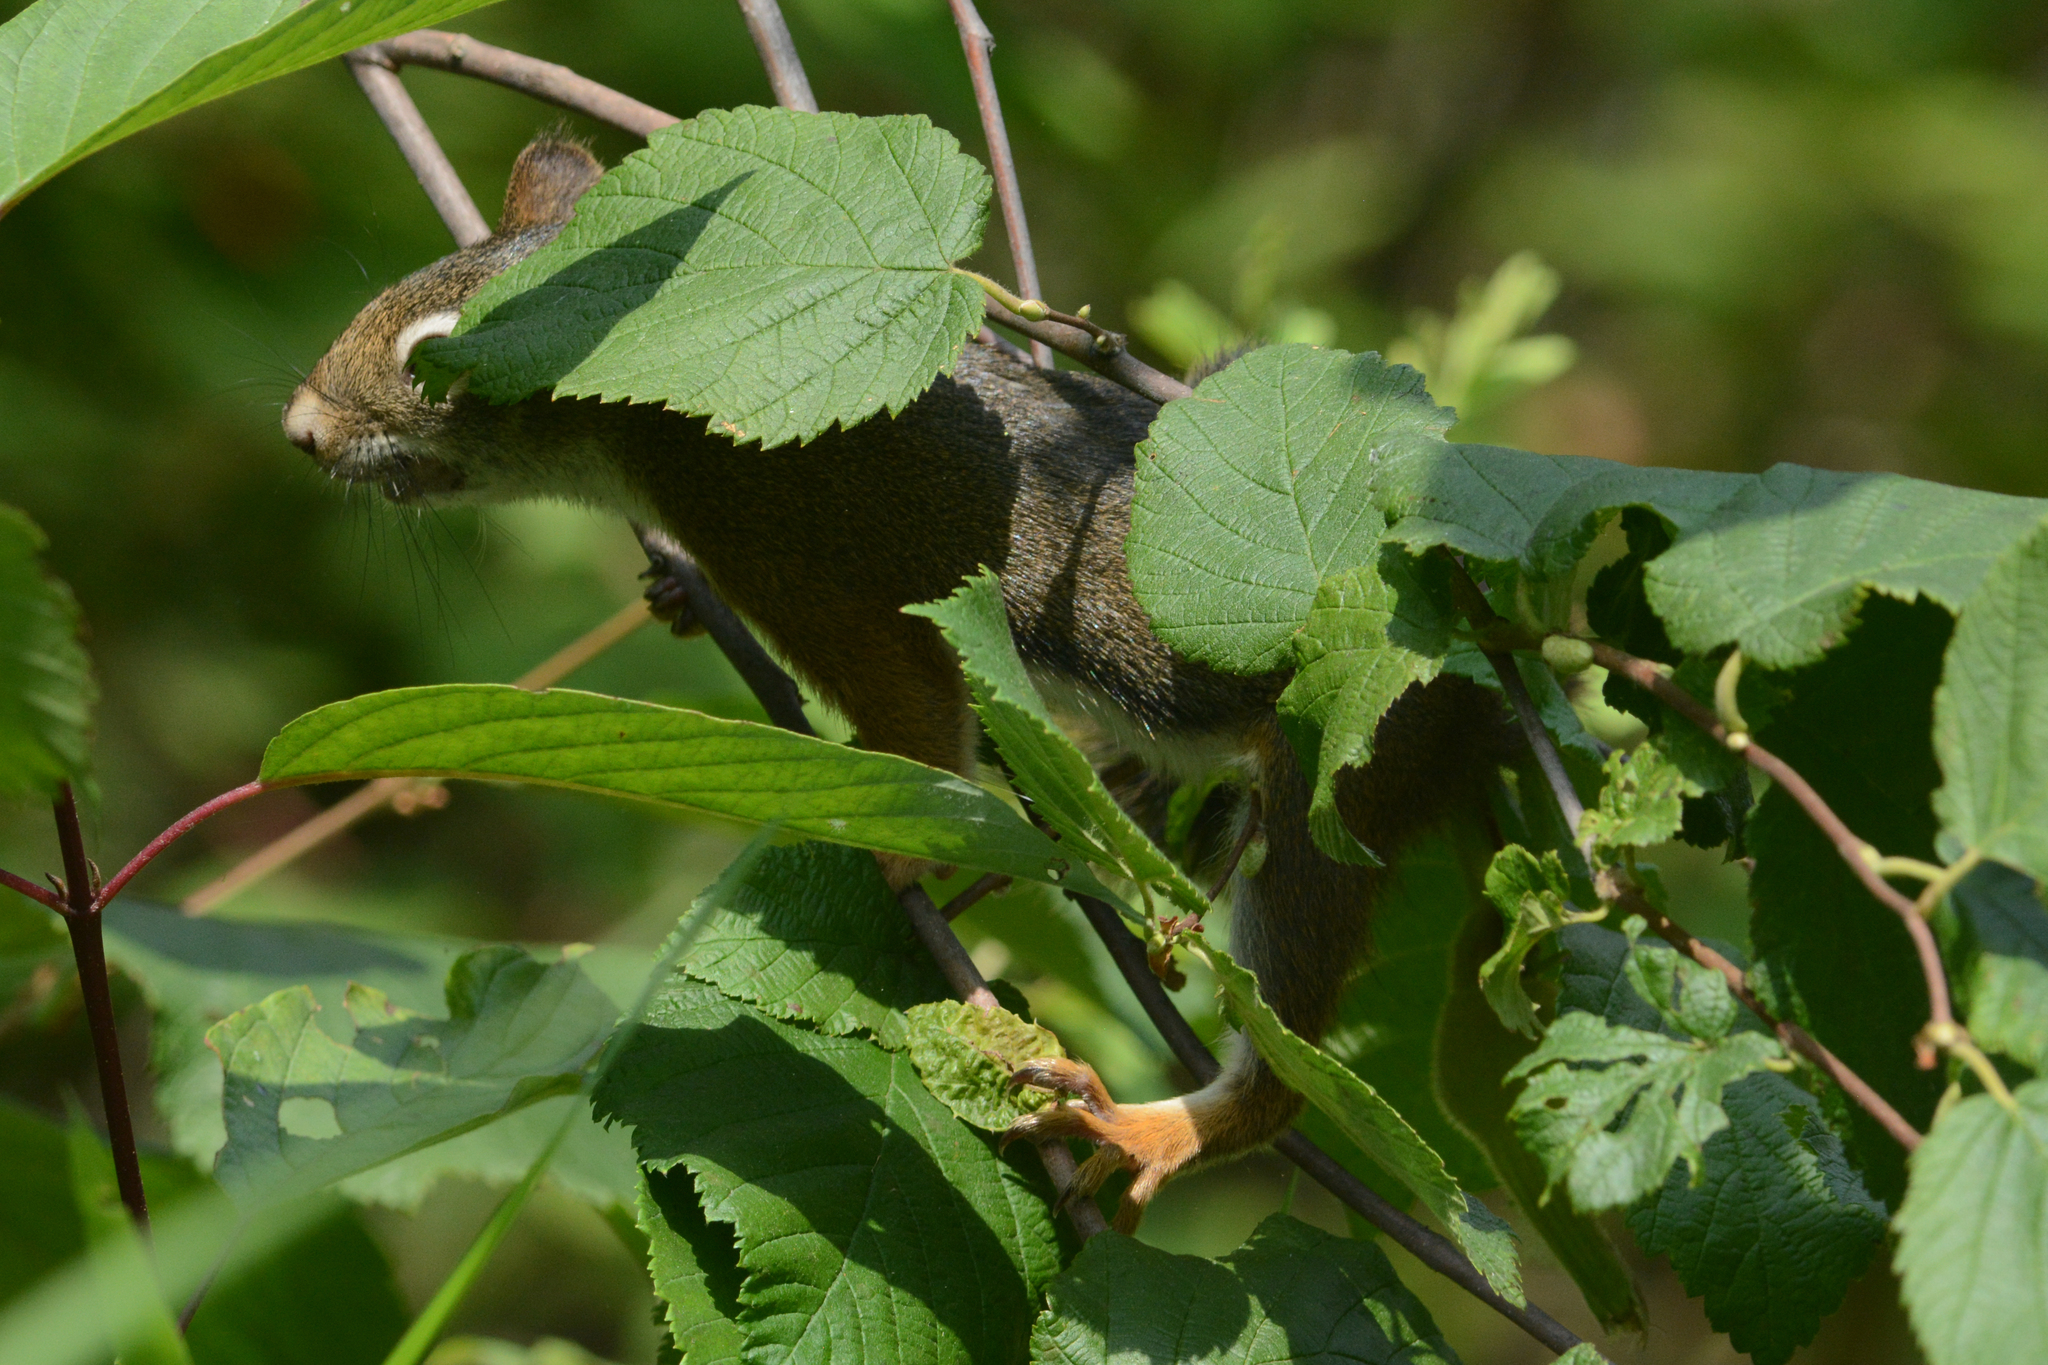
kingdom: Animalia
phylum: Chordata
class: Mammalia
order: Rodentia
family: Sciuridae
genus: Tamiasciurus
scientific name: Tamiasciurus hudsonicus
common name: Red squirrel
